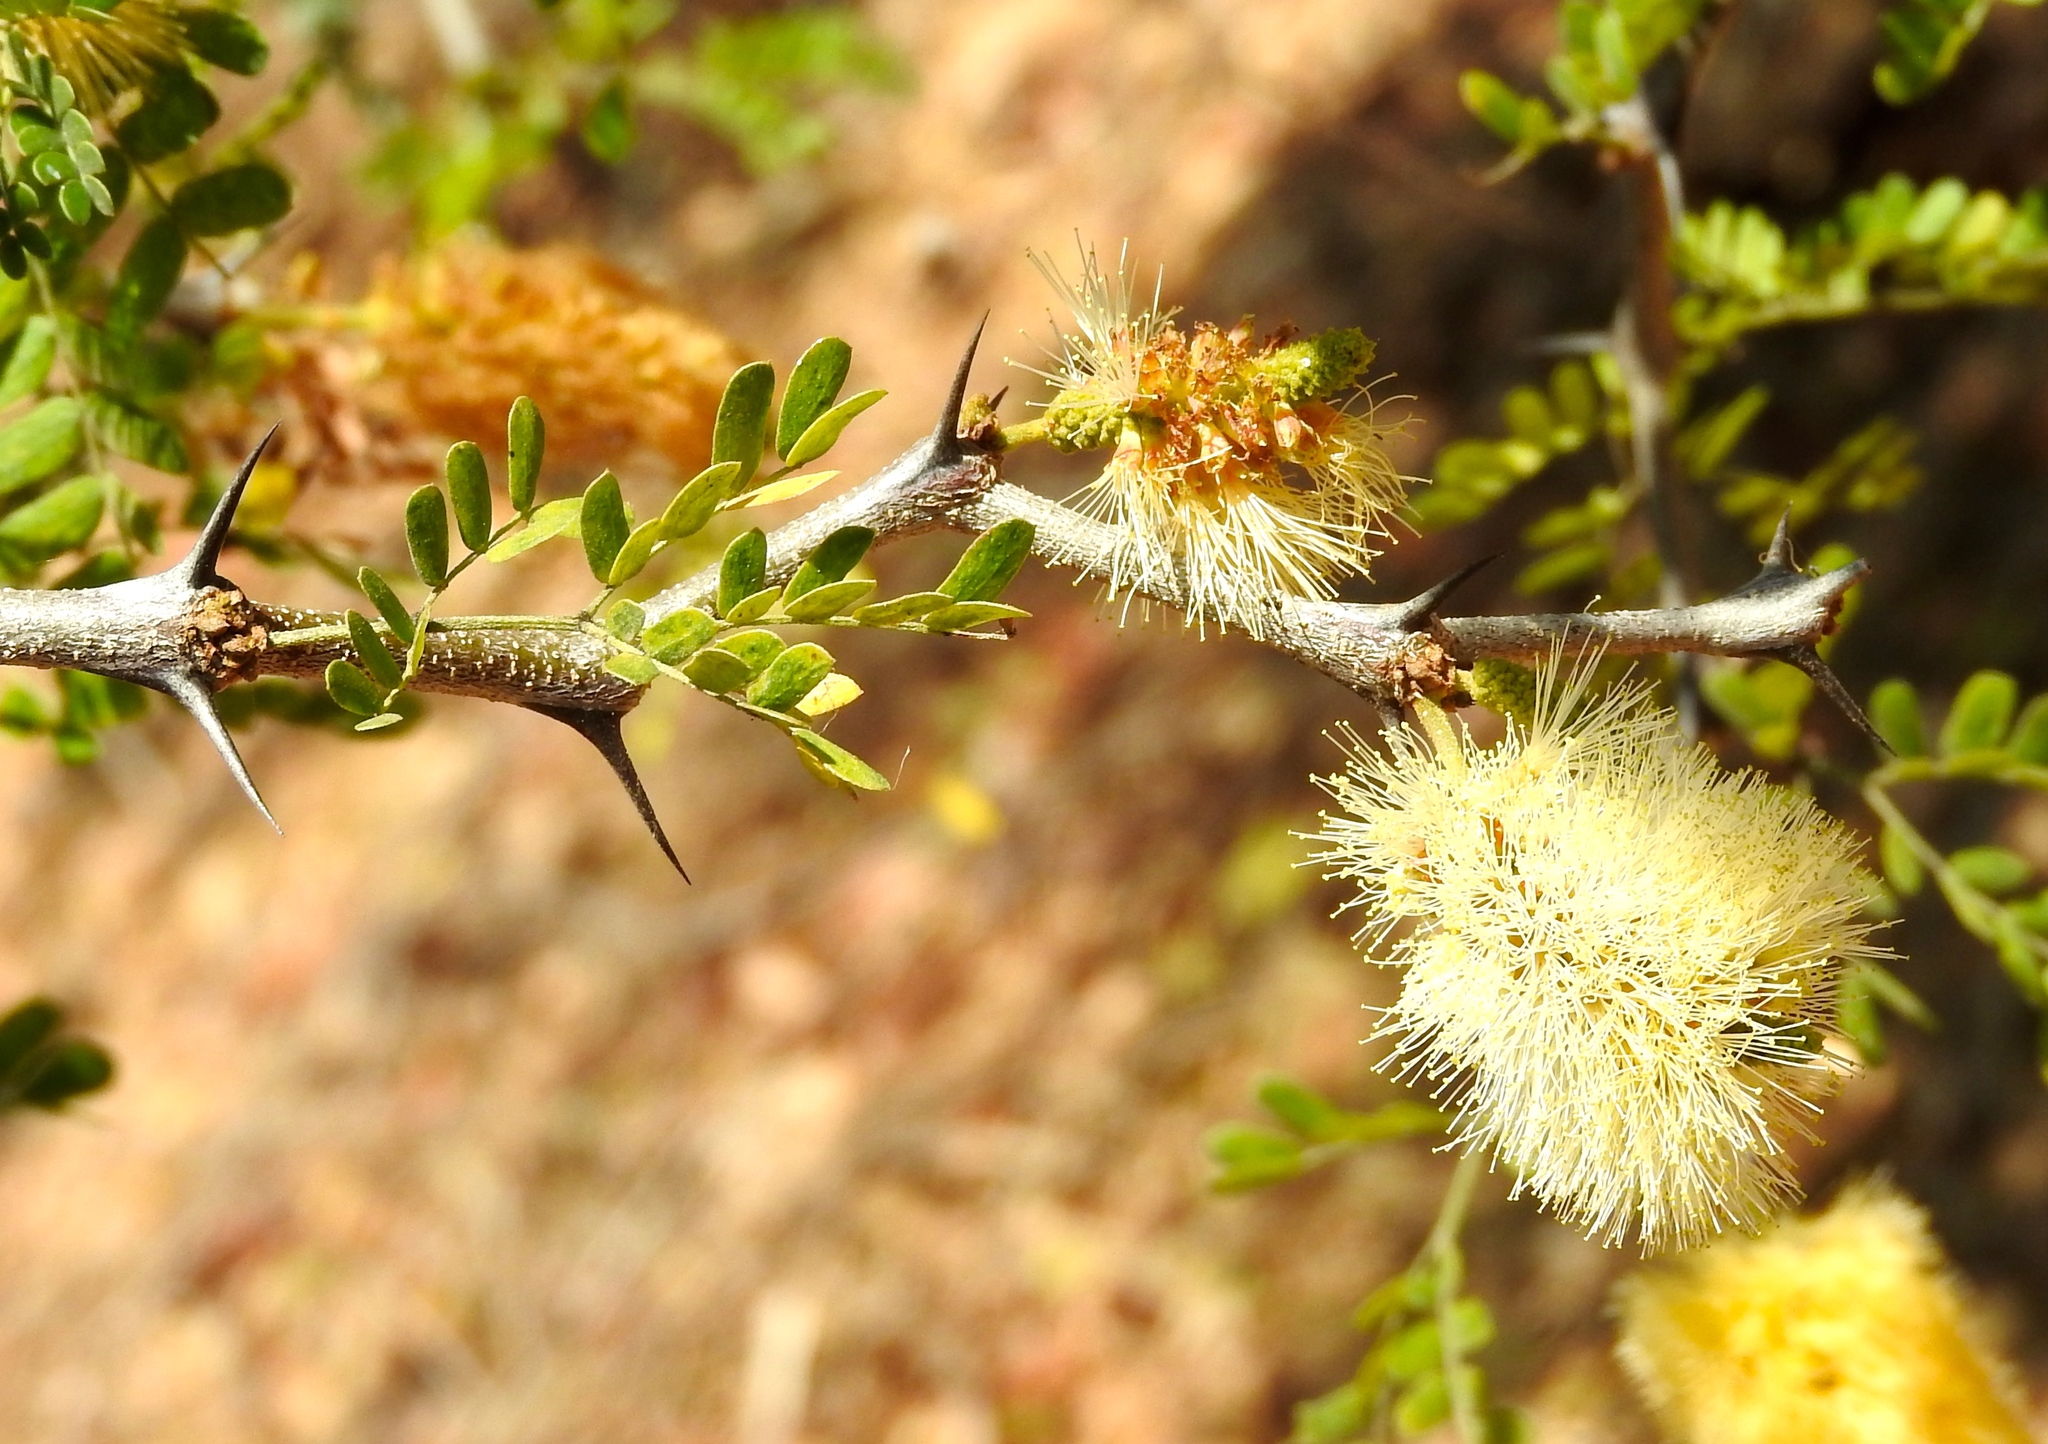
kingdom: Plantae
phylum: Tracheophyta
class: Magnoliopsida
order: Fabales
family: Fabaceae
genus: Ebenopsis
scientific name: Ebenopsis caesalpinioides
